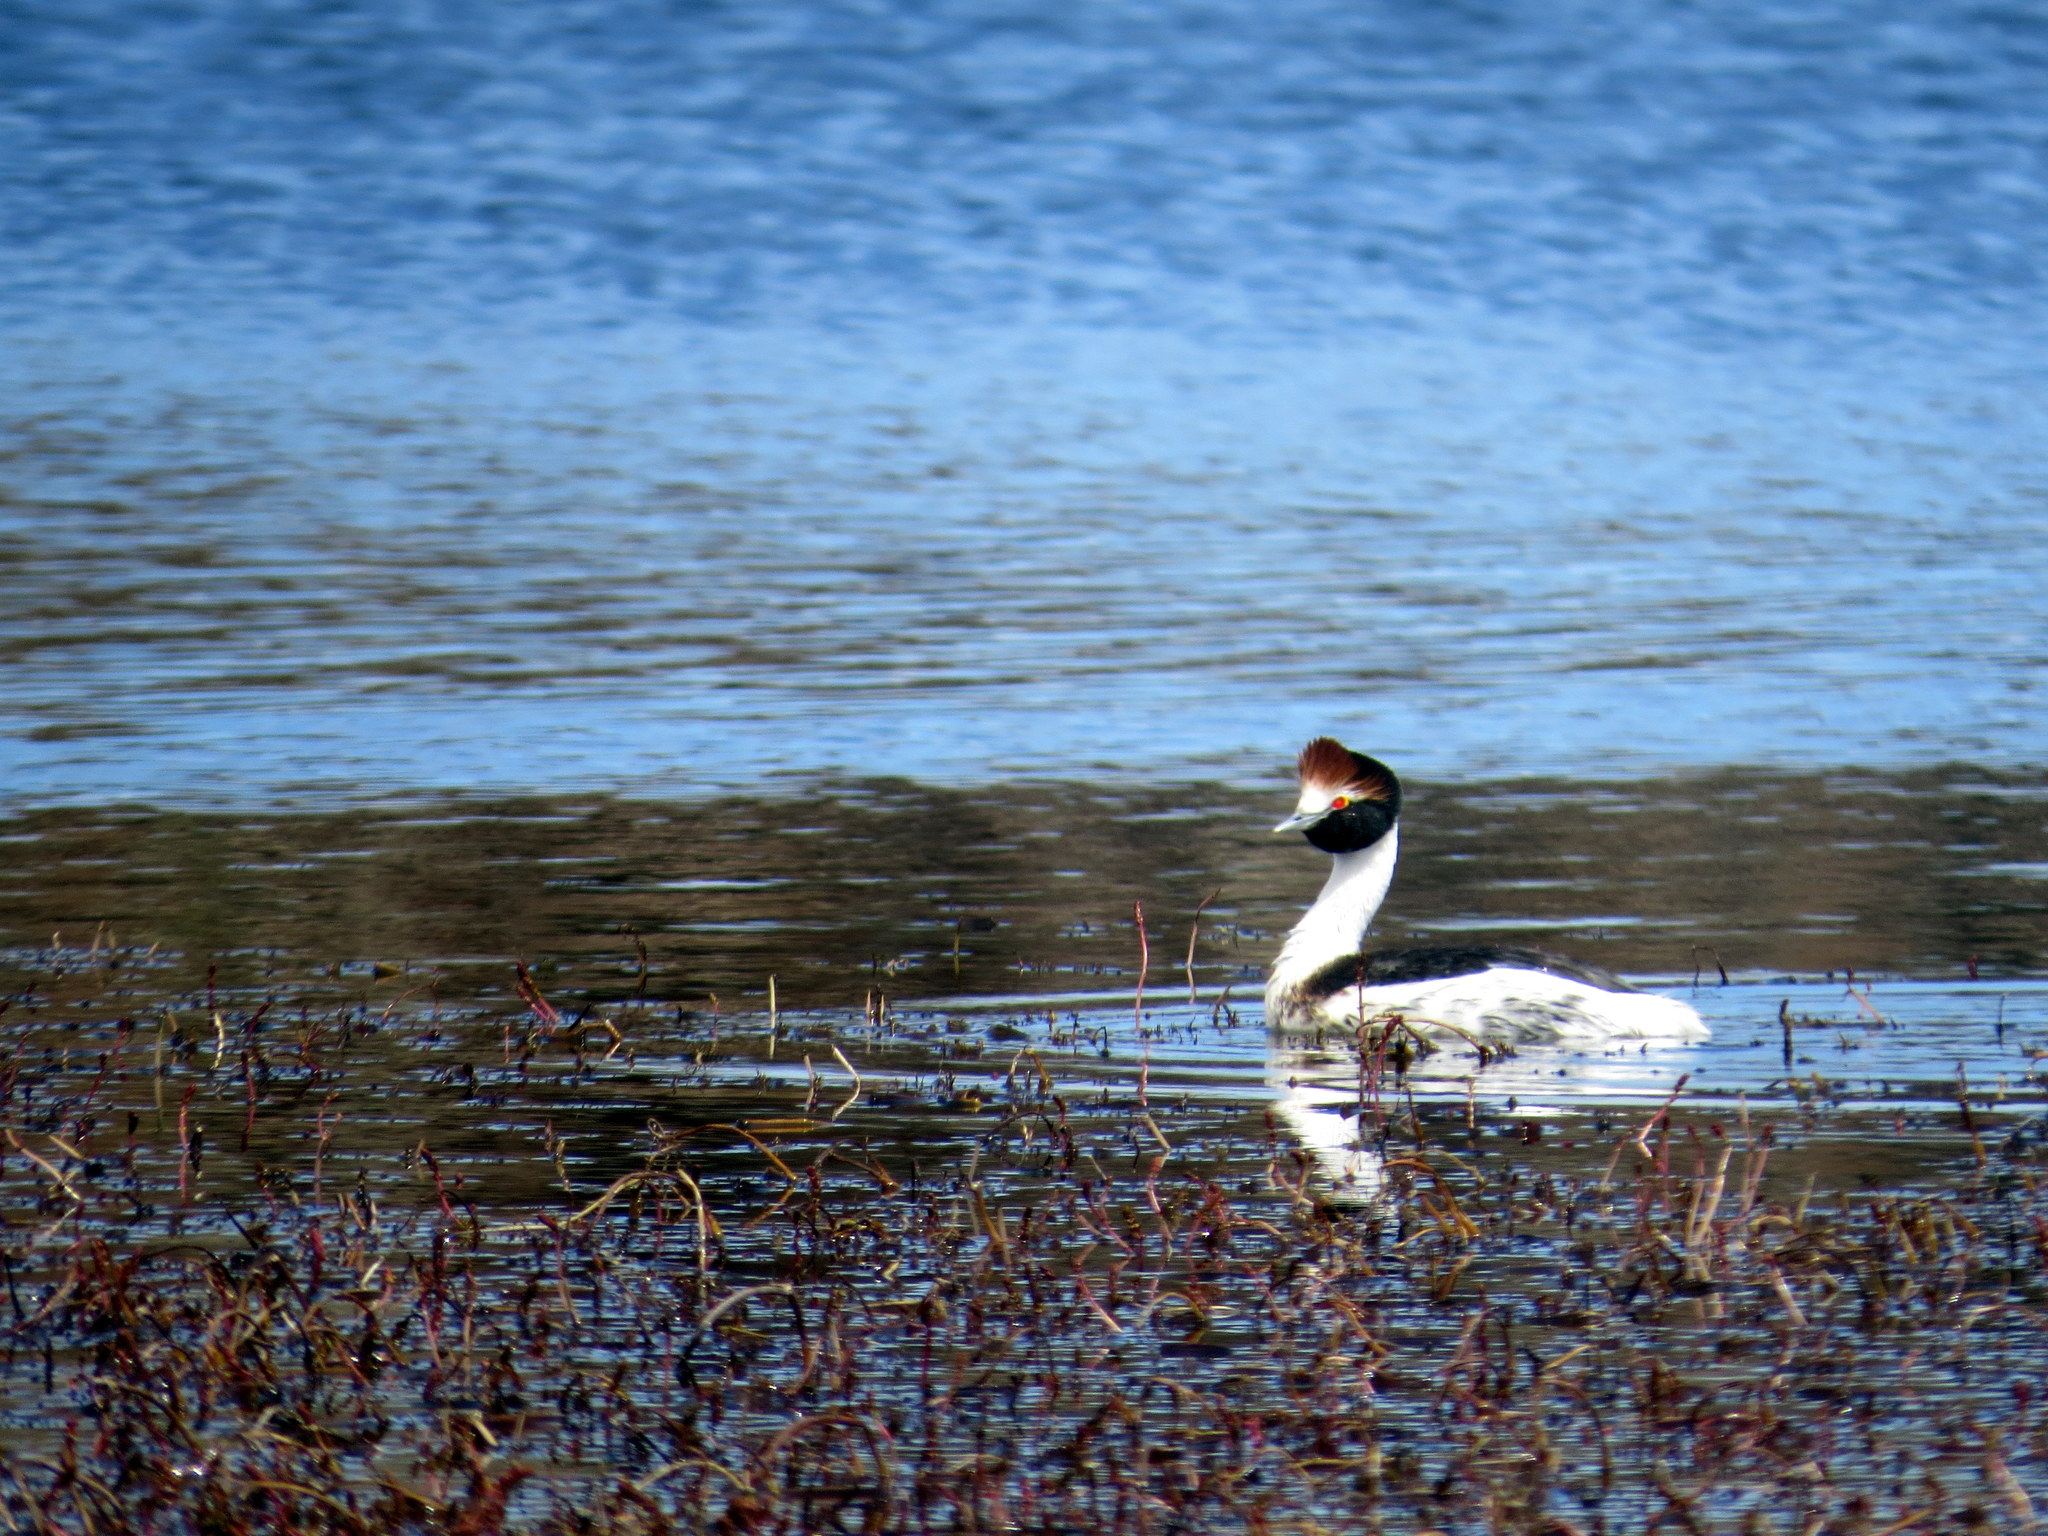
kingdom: Animalia
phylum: Chordata
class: Aves
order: Podicipediformes
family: Podicipedidae
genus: Podiceps
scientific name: Podiceps gallardoi
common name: Hooded grebe
